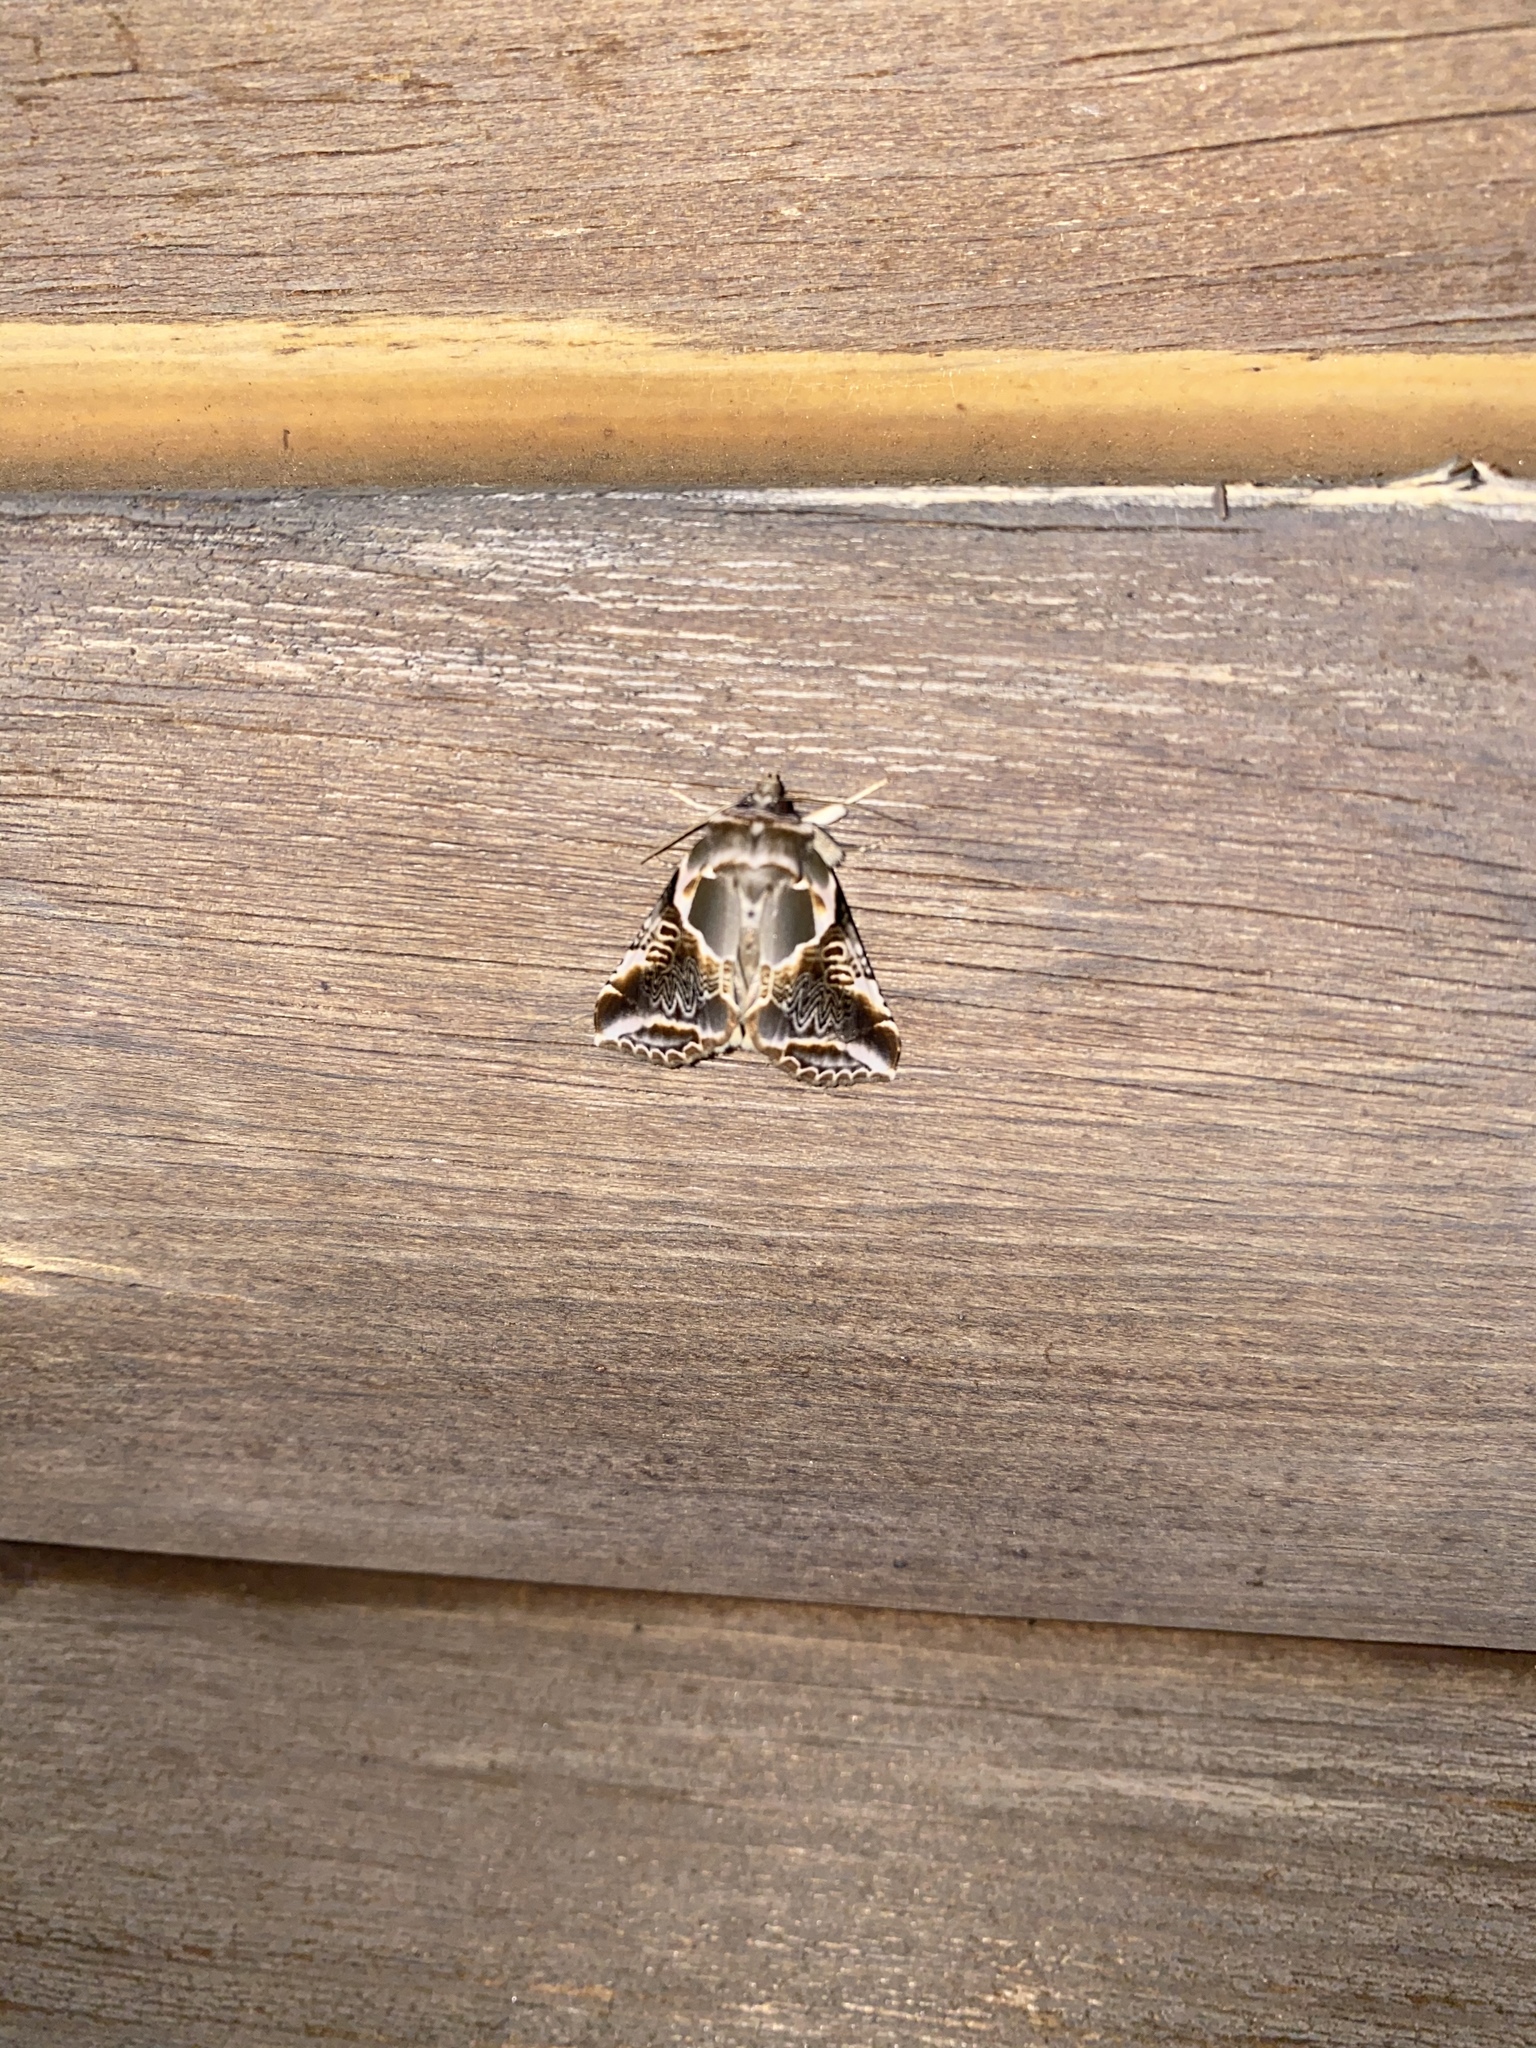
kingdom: Animalia
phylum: Arthropoda
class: Insecta
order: Lepidoptera
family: Drepanidae
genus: Habrosyne
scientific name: Habrosyne scripta
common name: Lettered habrosyne moth
